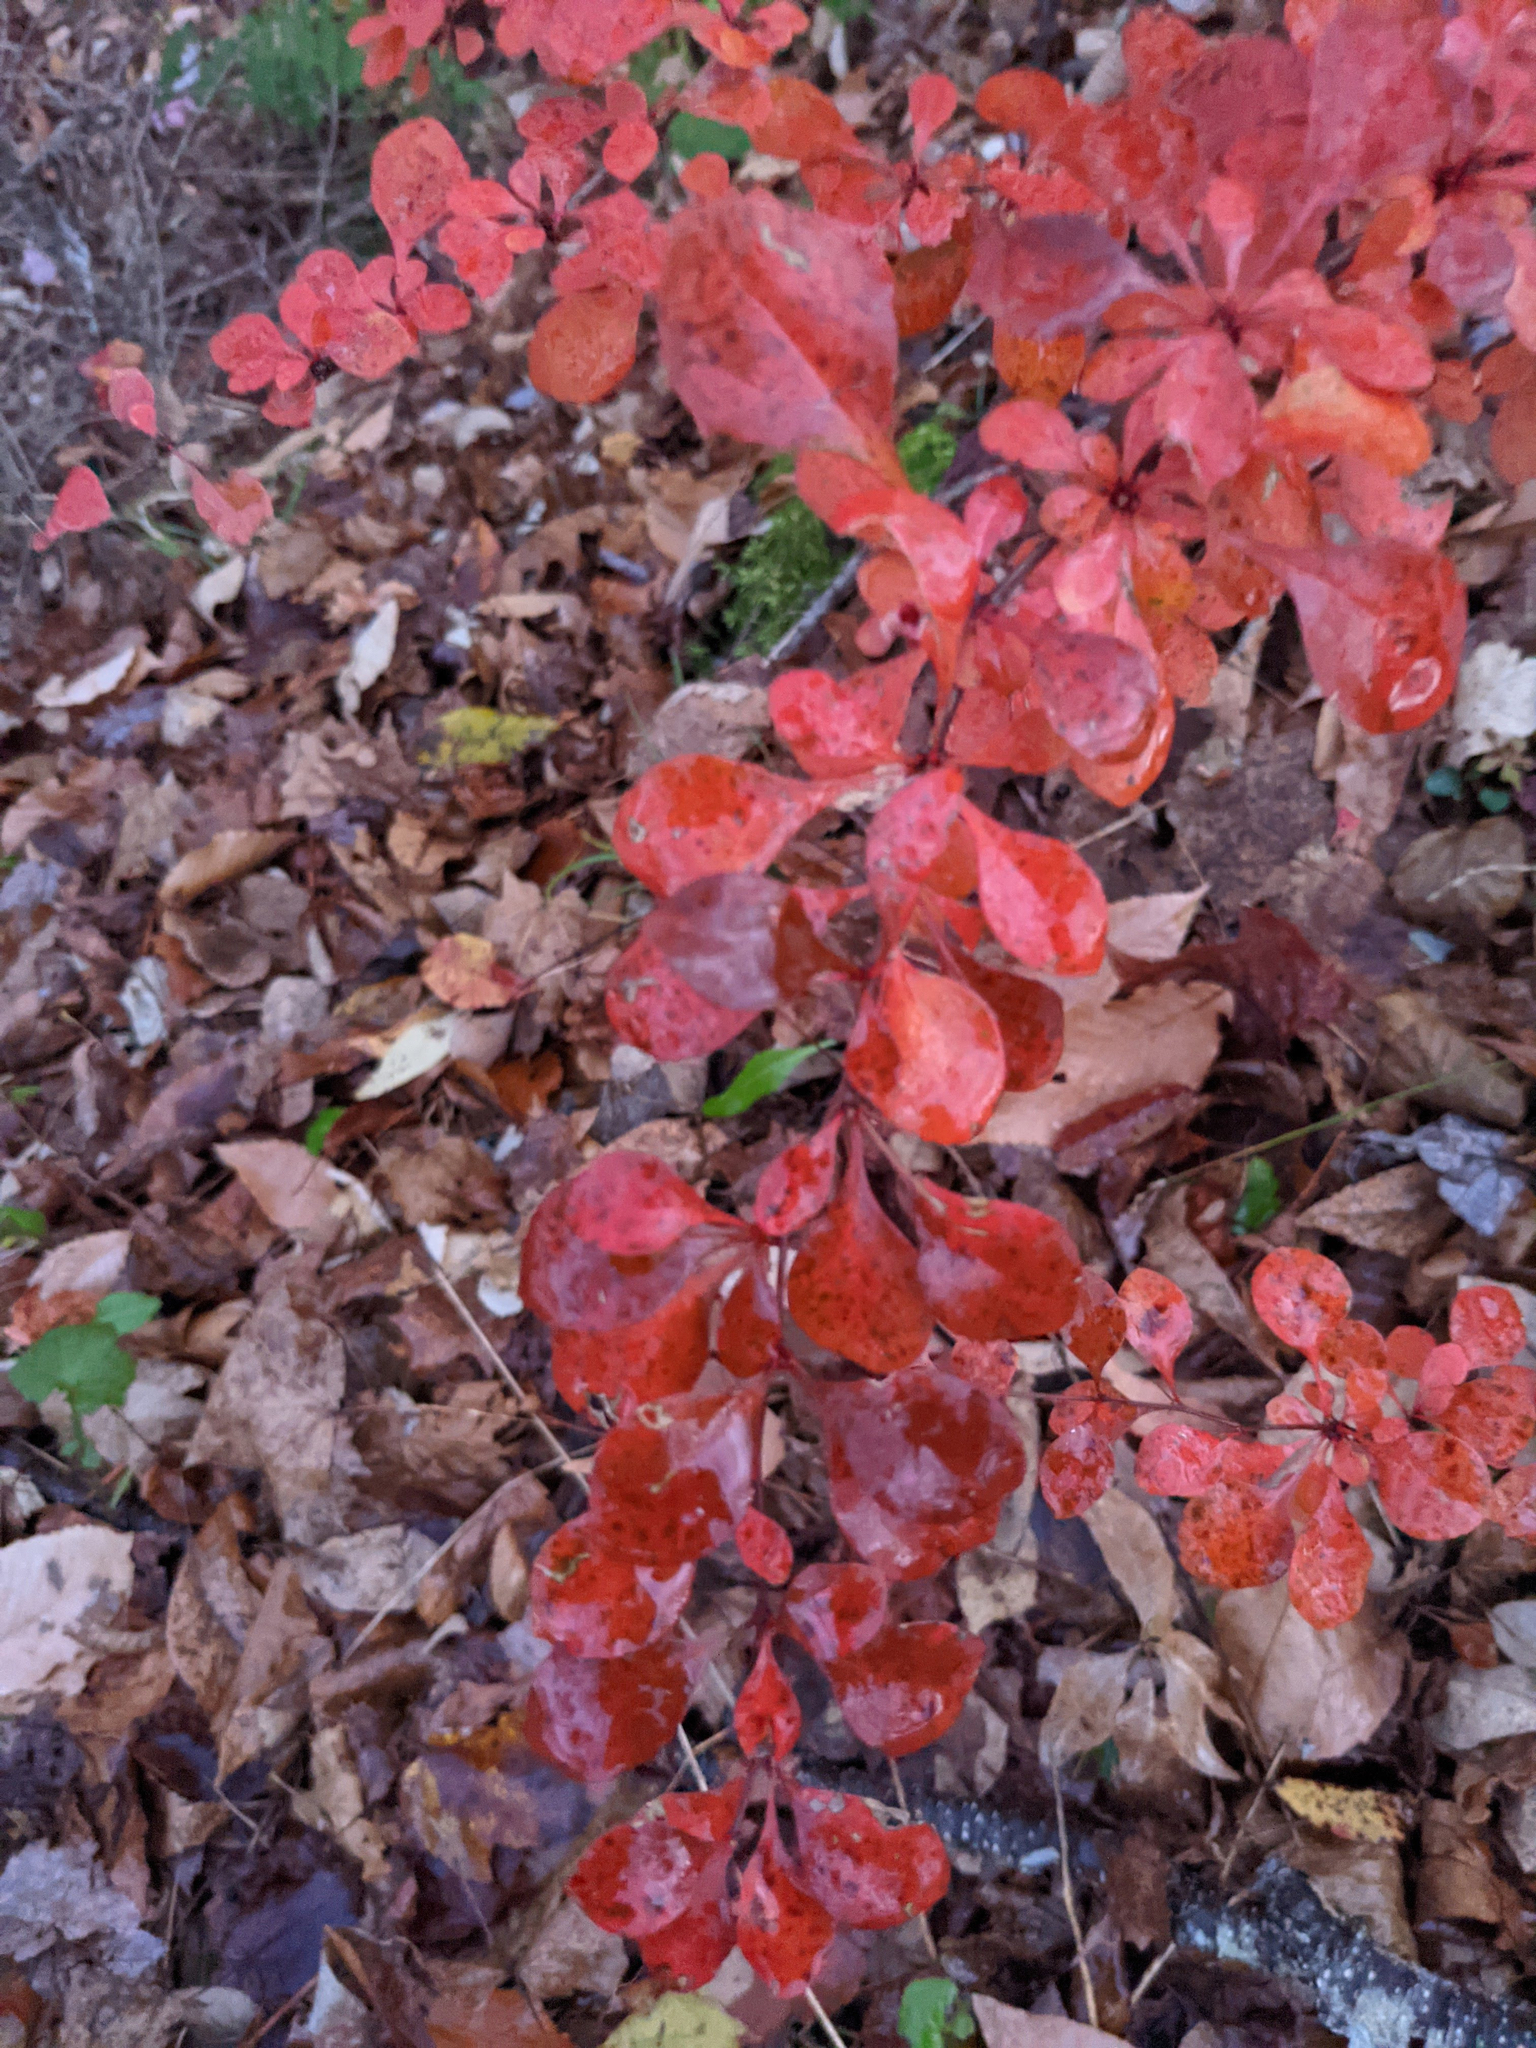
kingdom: Plantae
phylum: Tracheophyta
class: Magnoliopsida
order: Ranunculales
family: Berberidaceae
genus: Berberis
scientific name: Berberis thunbergii
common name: Japanese barberry
